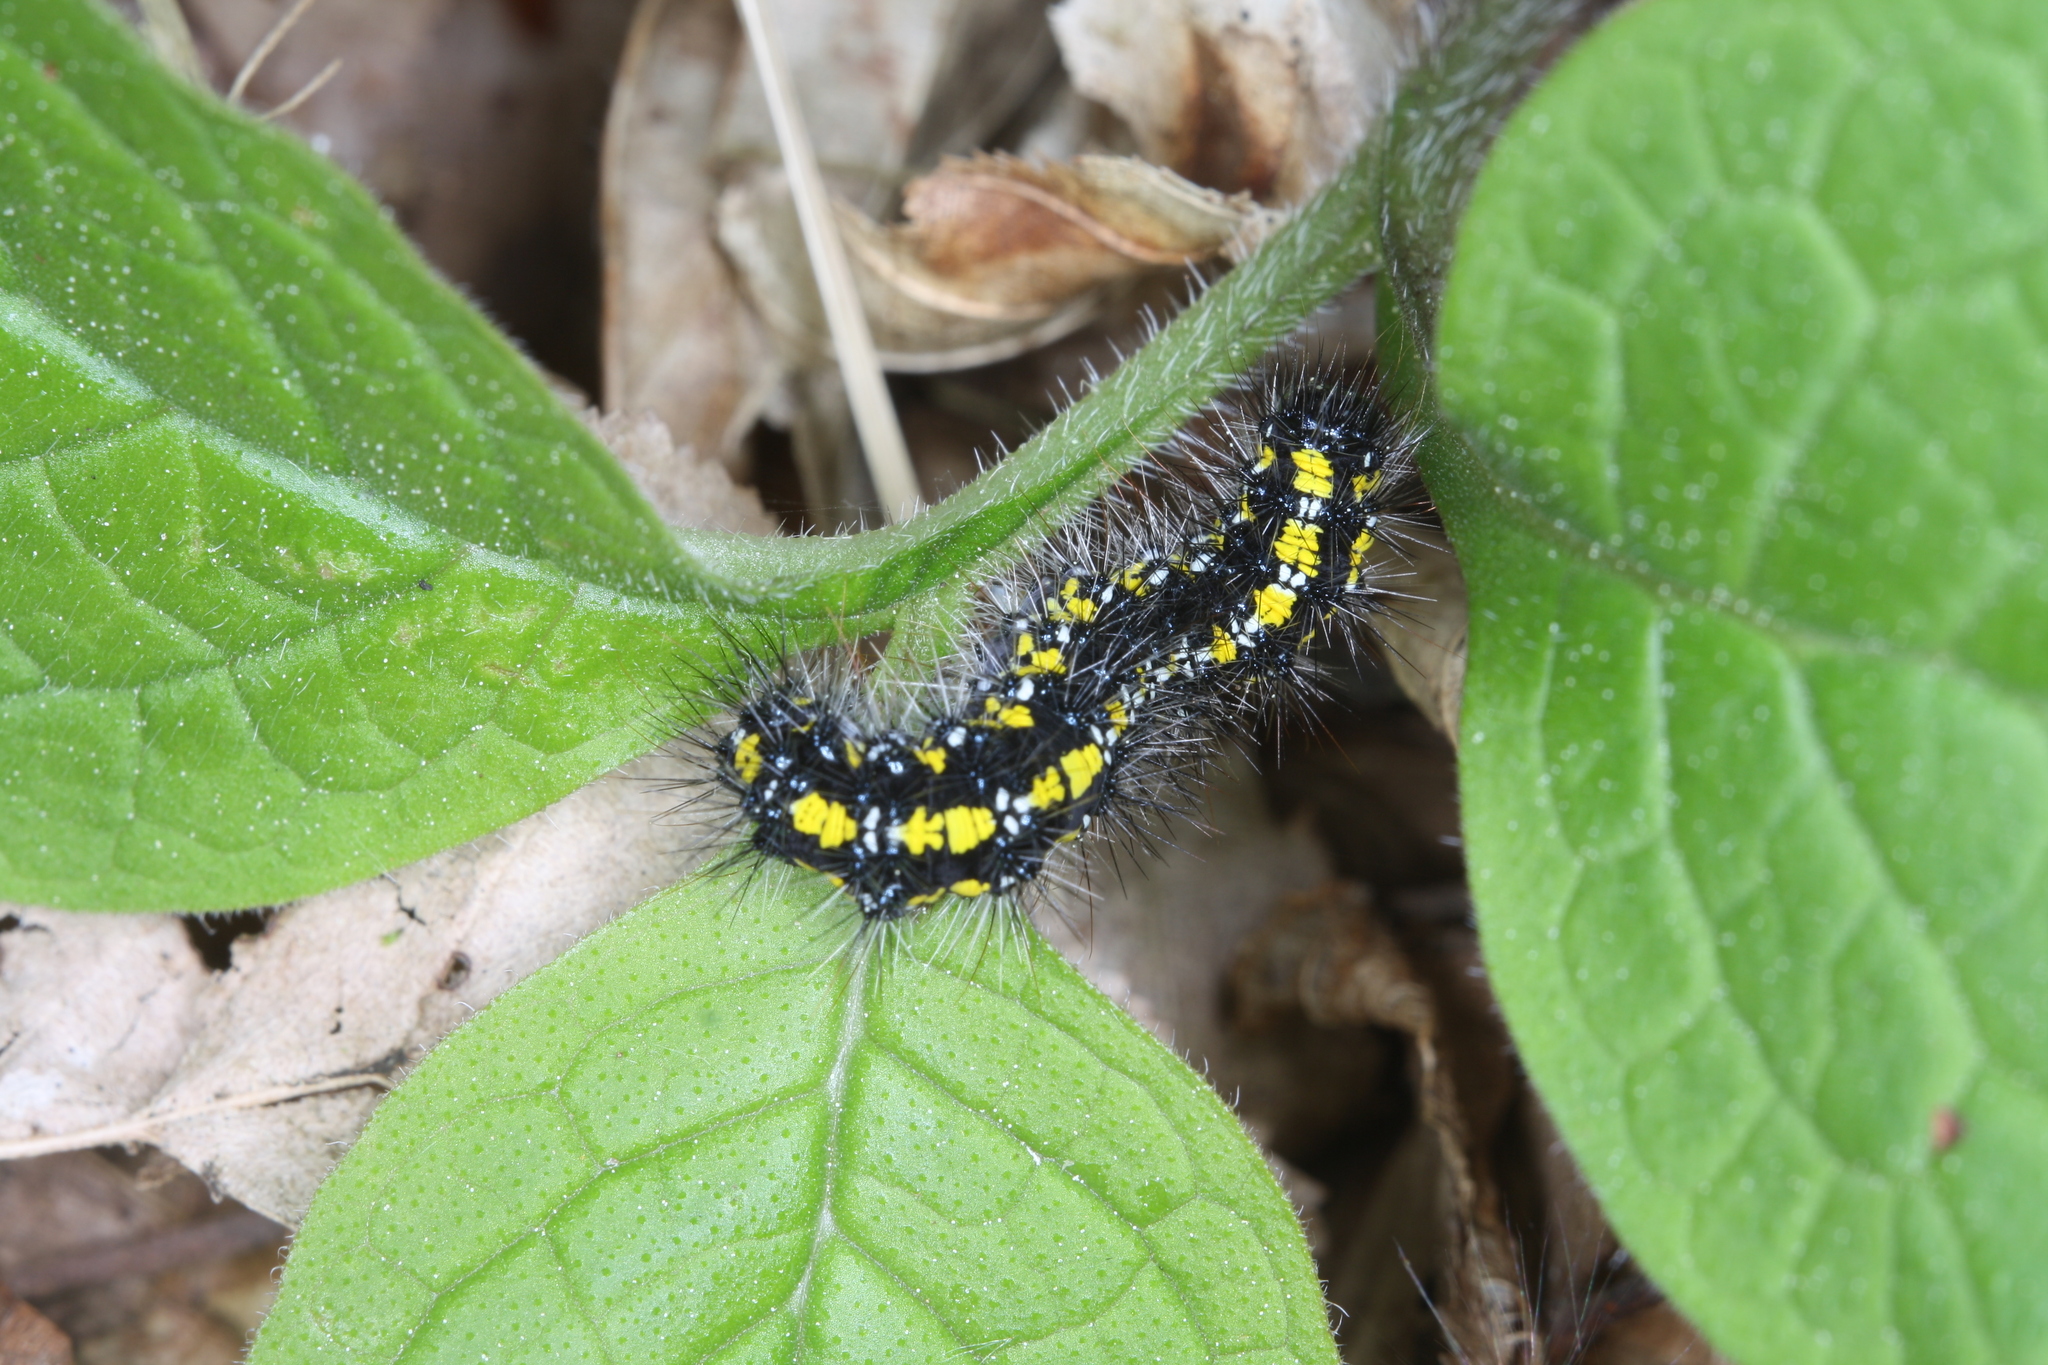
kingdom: Animalia
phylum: Arthropoda
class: Insecta
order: Lepidoptera
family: Erebidae
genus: Callimorpha
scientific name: Callimorpha dominula
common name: Scarlet tiger
